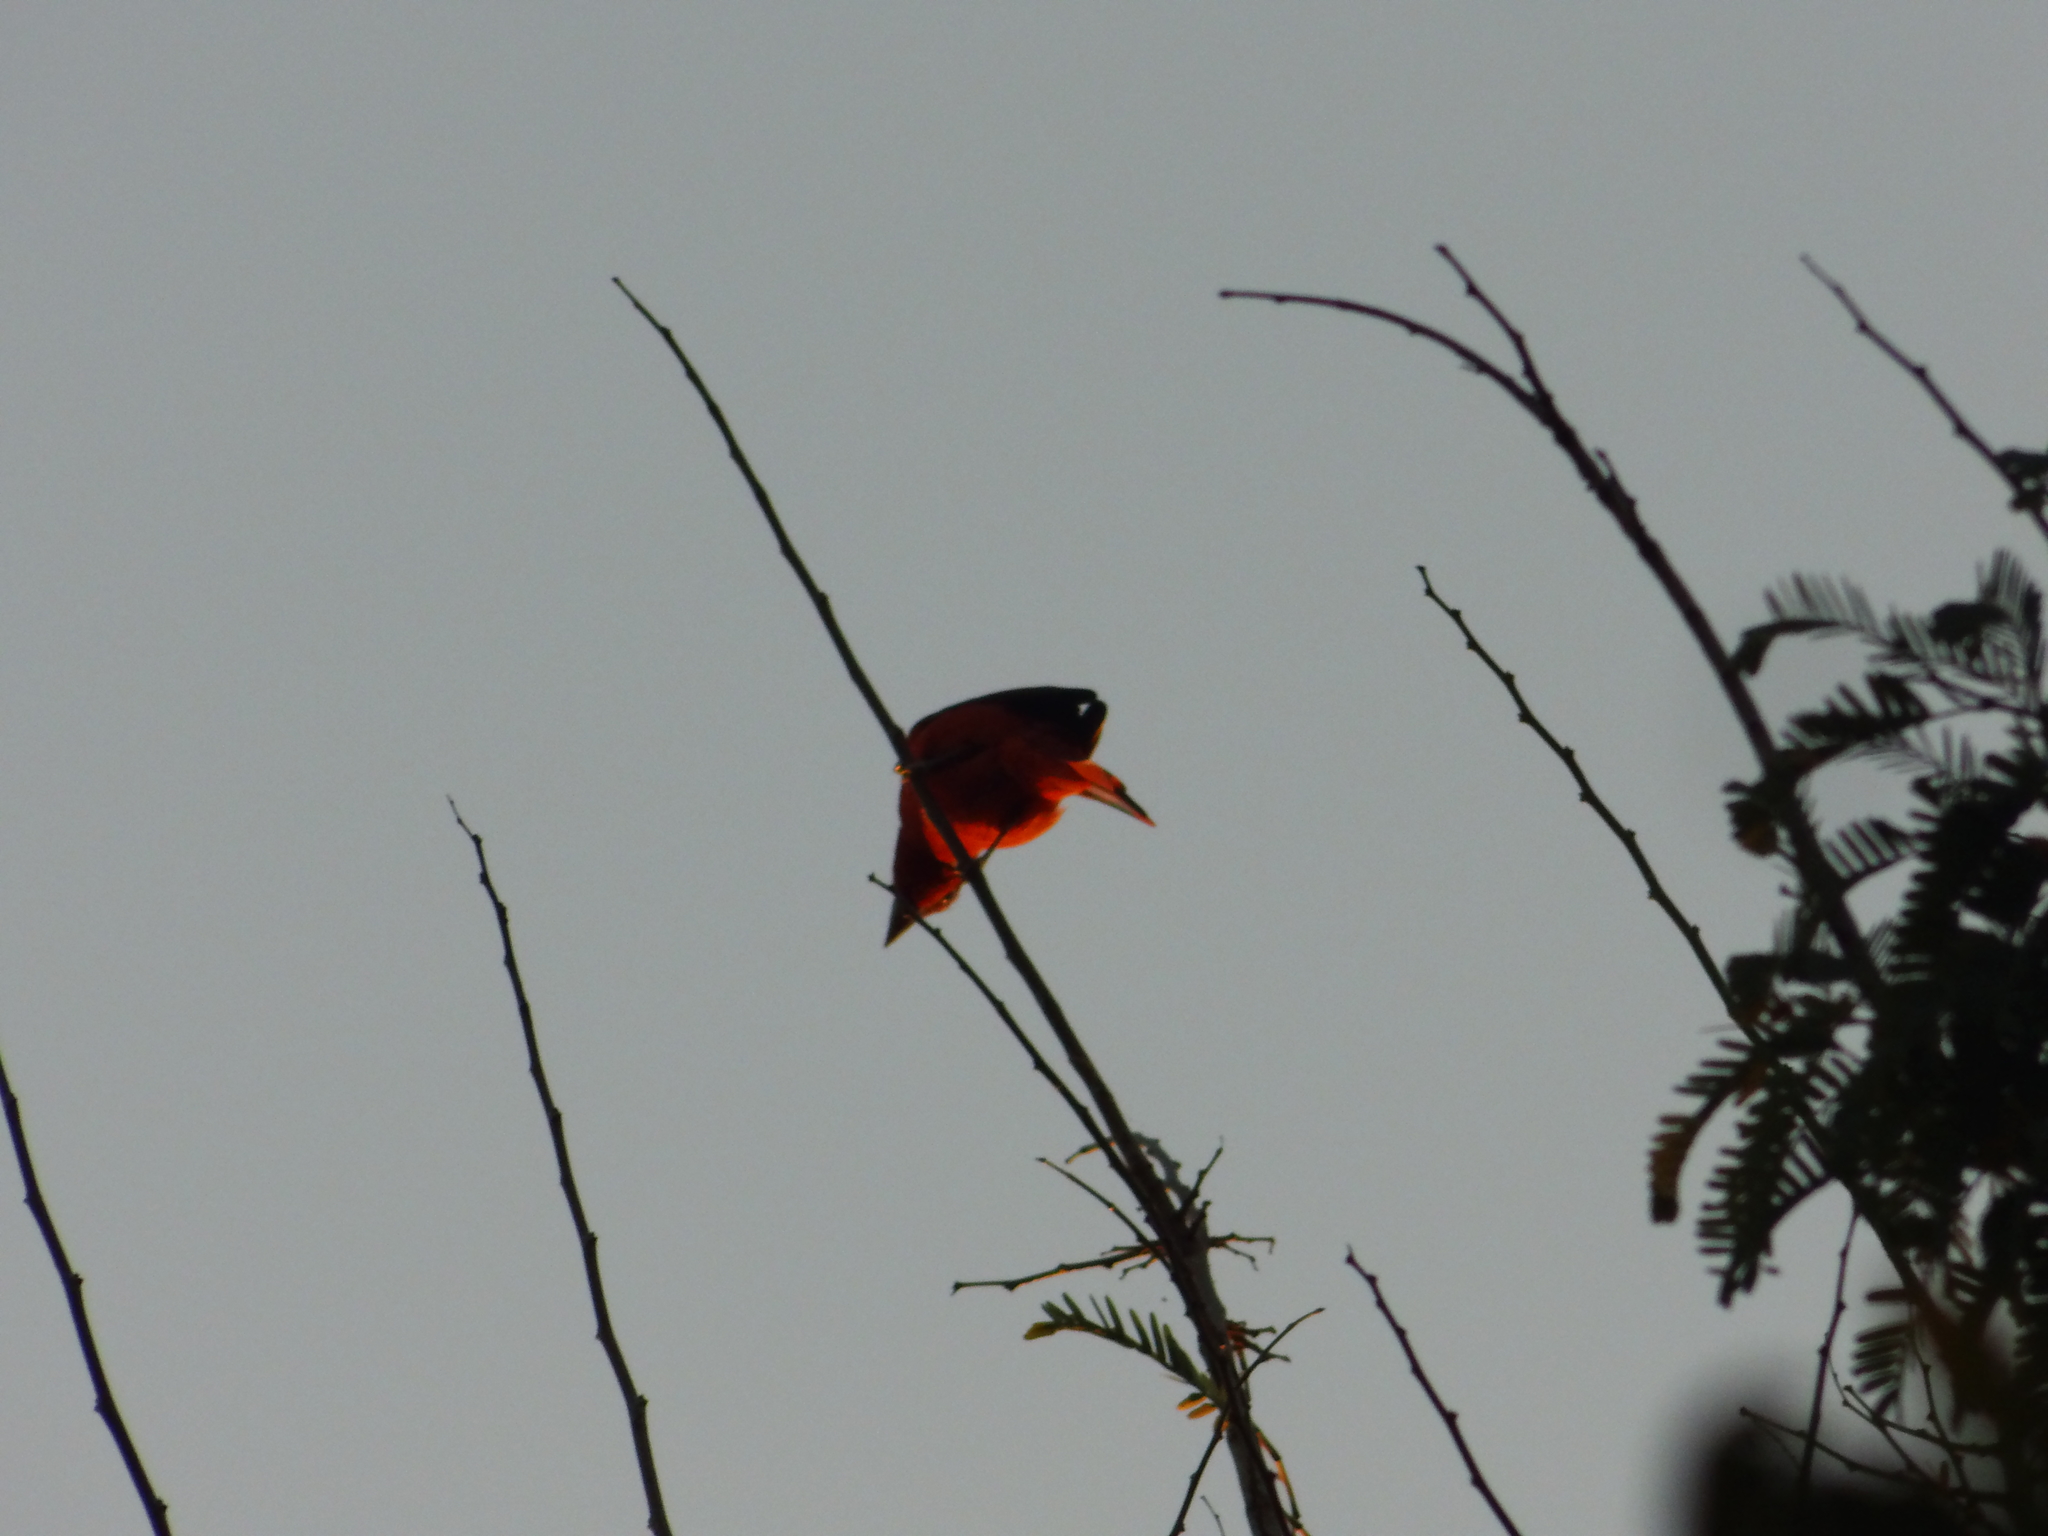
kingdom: Animalia
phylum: Chordata
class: Aves
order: Passeriformes
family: Cardinalidae
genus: Piranga
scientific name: Piranga rubra
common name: Summer tanager
